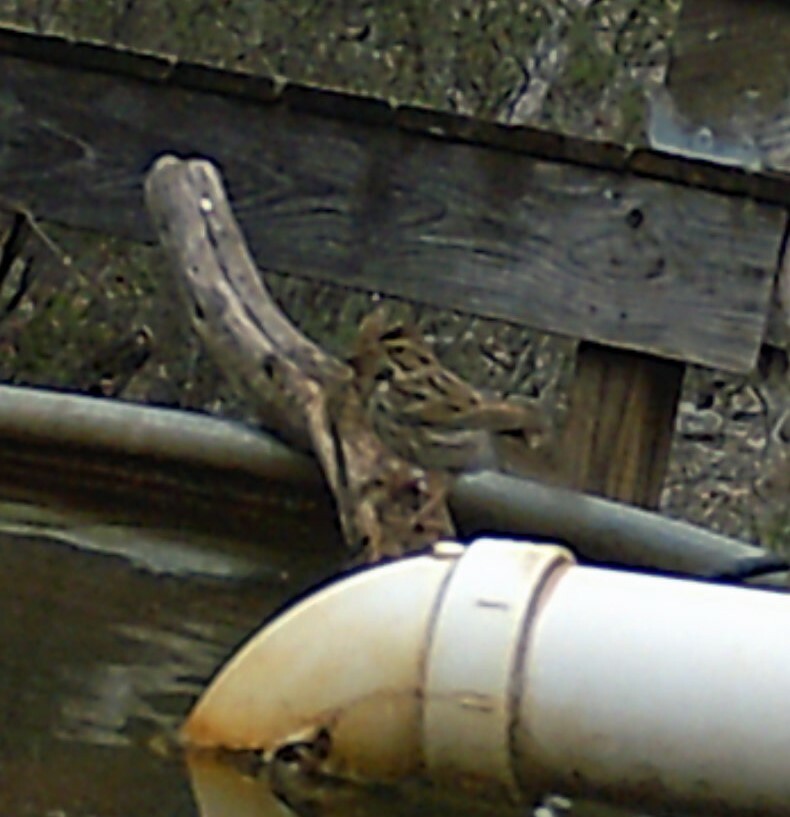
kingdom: Animalia
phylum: Chordata
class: Aves
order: Passeriformes
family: Passerellidae
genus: Passerculus
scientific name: Passerculus sandwichensis
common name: Savannah sparrow
